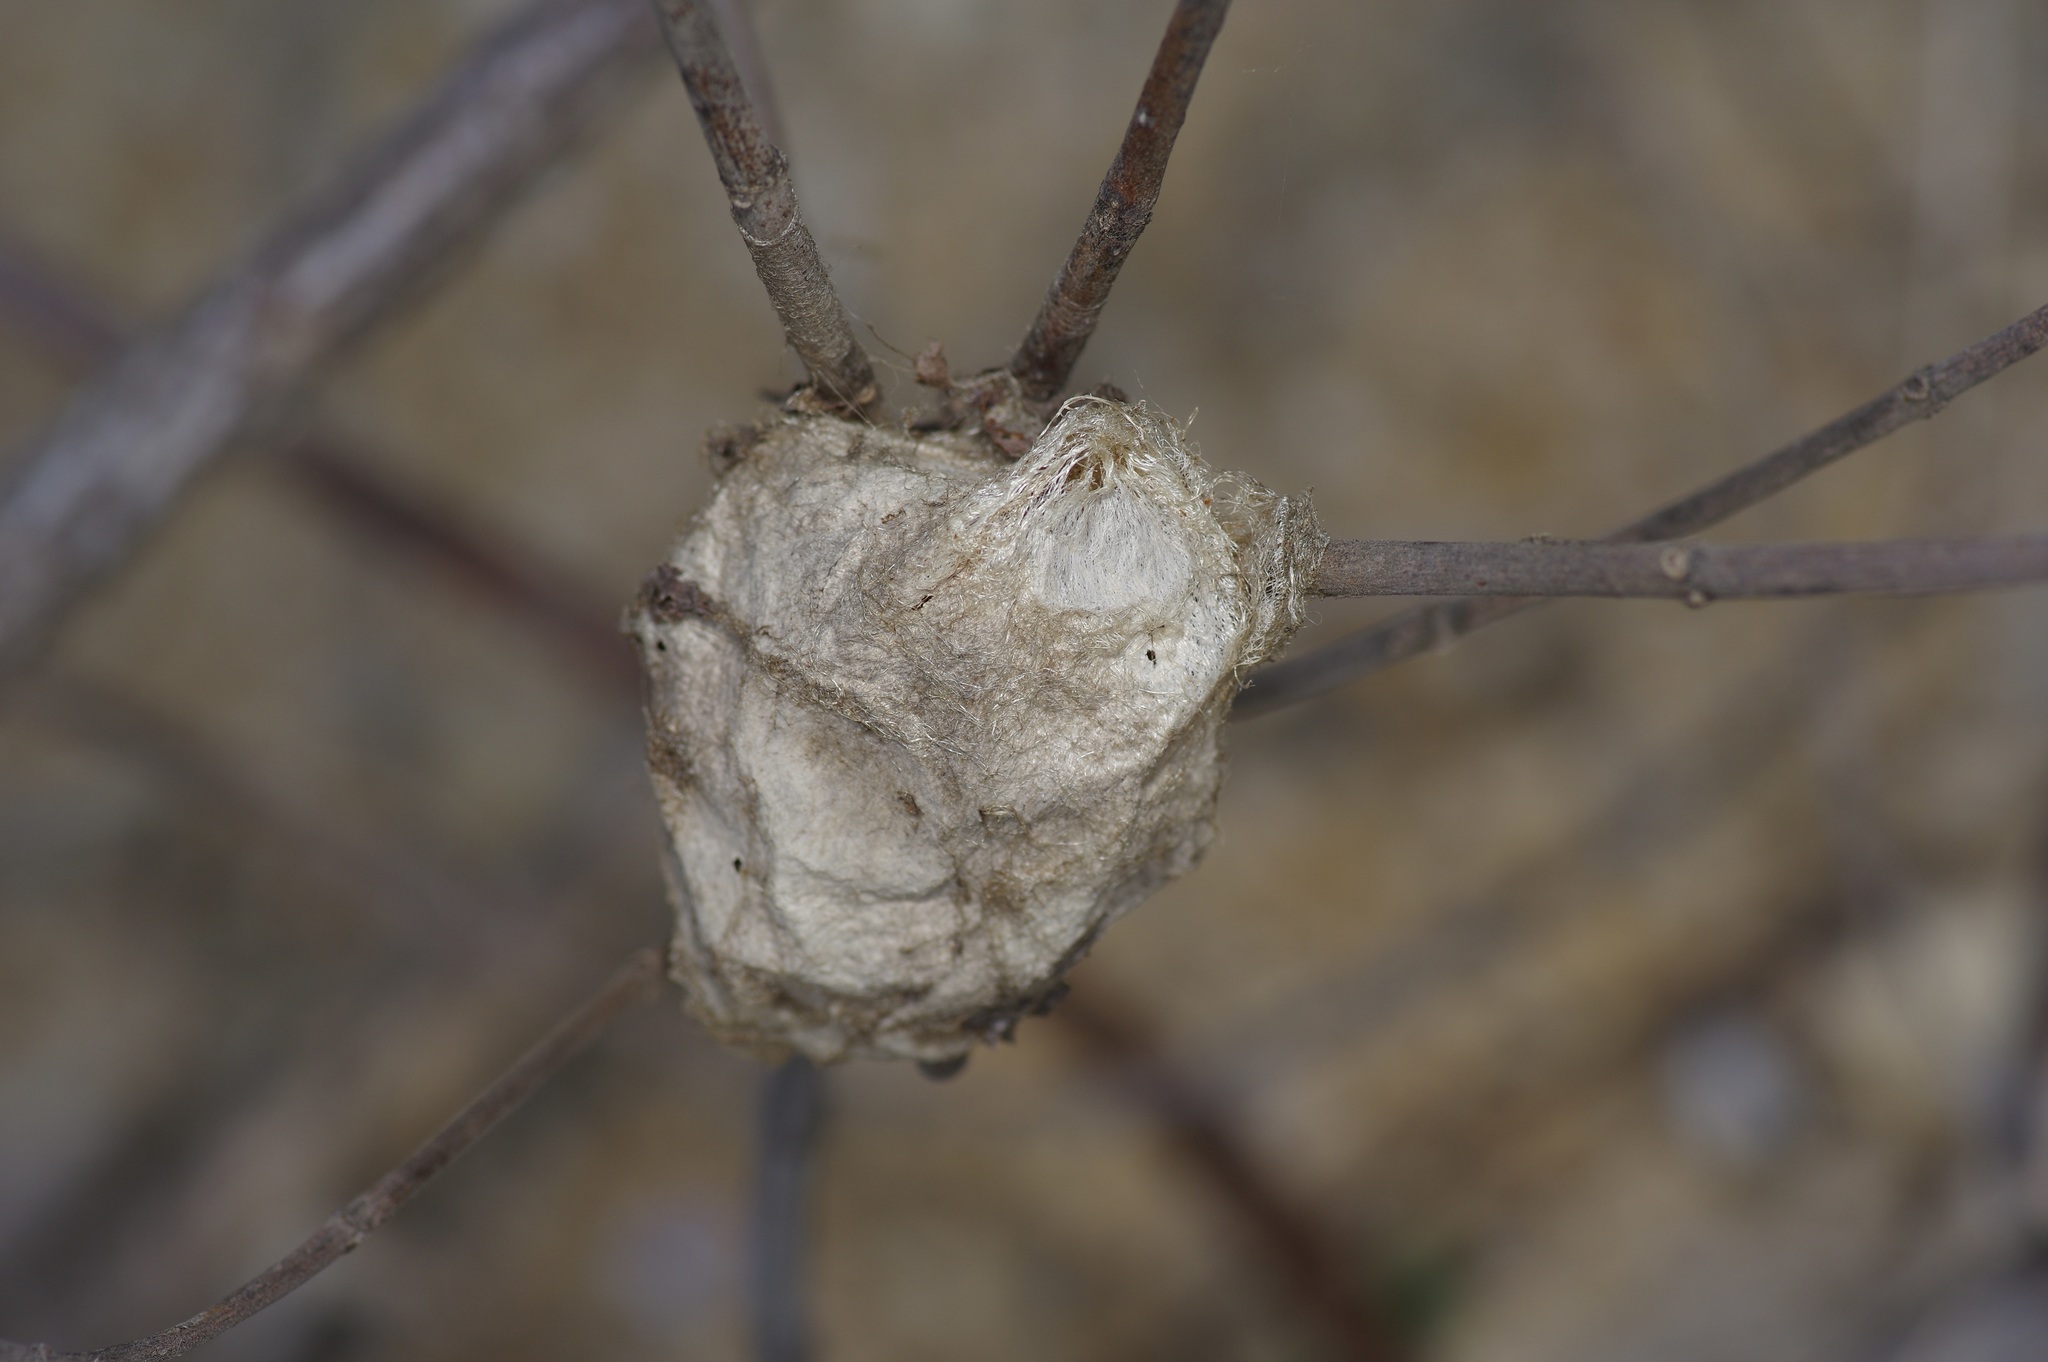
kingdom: Animalia
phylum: Arthropoda
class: Insecta
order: Lepidoptera
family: Saturniidae
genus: Hyalophora
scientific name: Hyalophora cecropia
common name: Cecropia silkmoth
